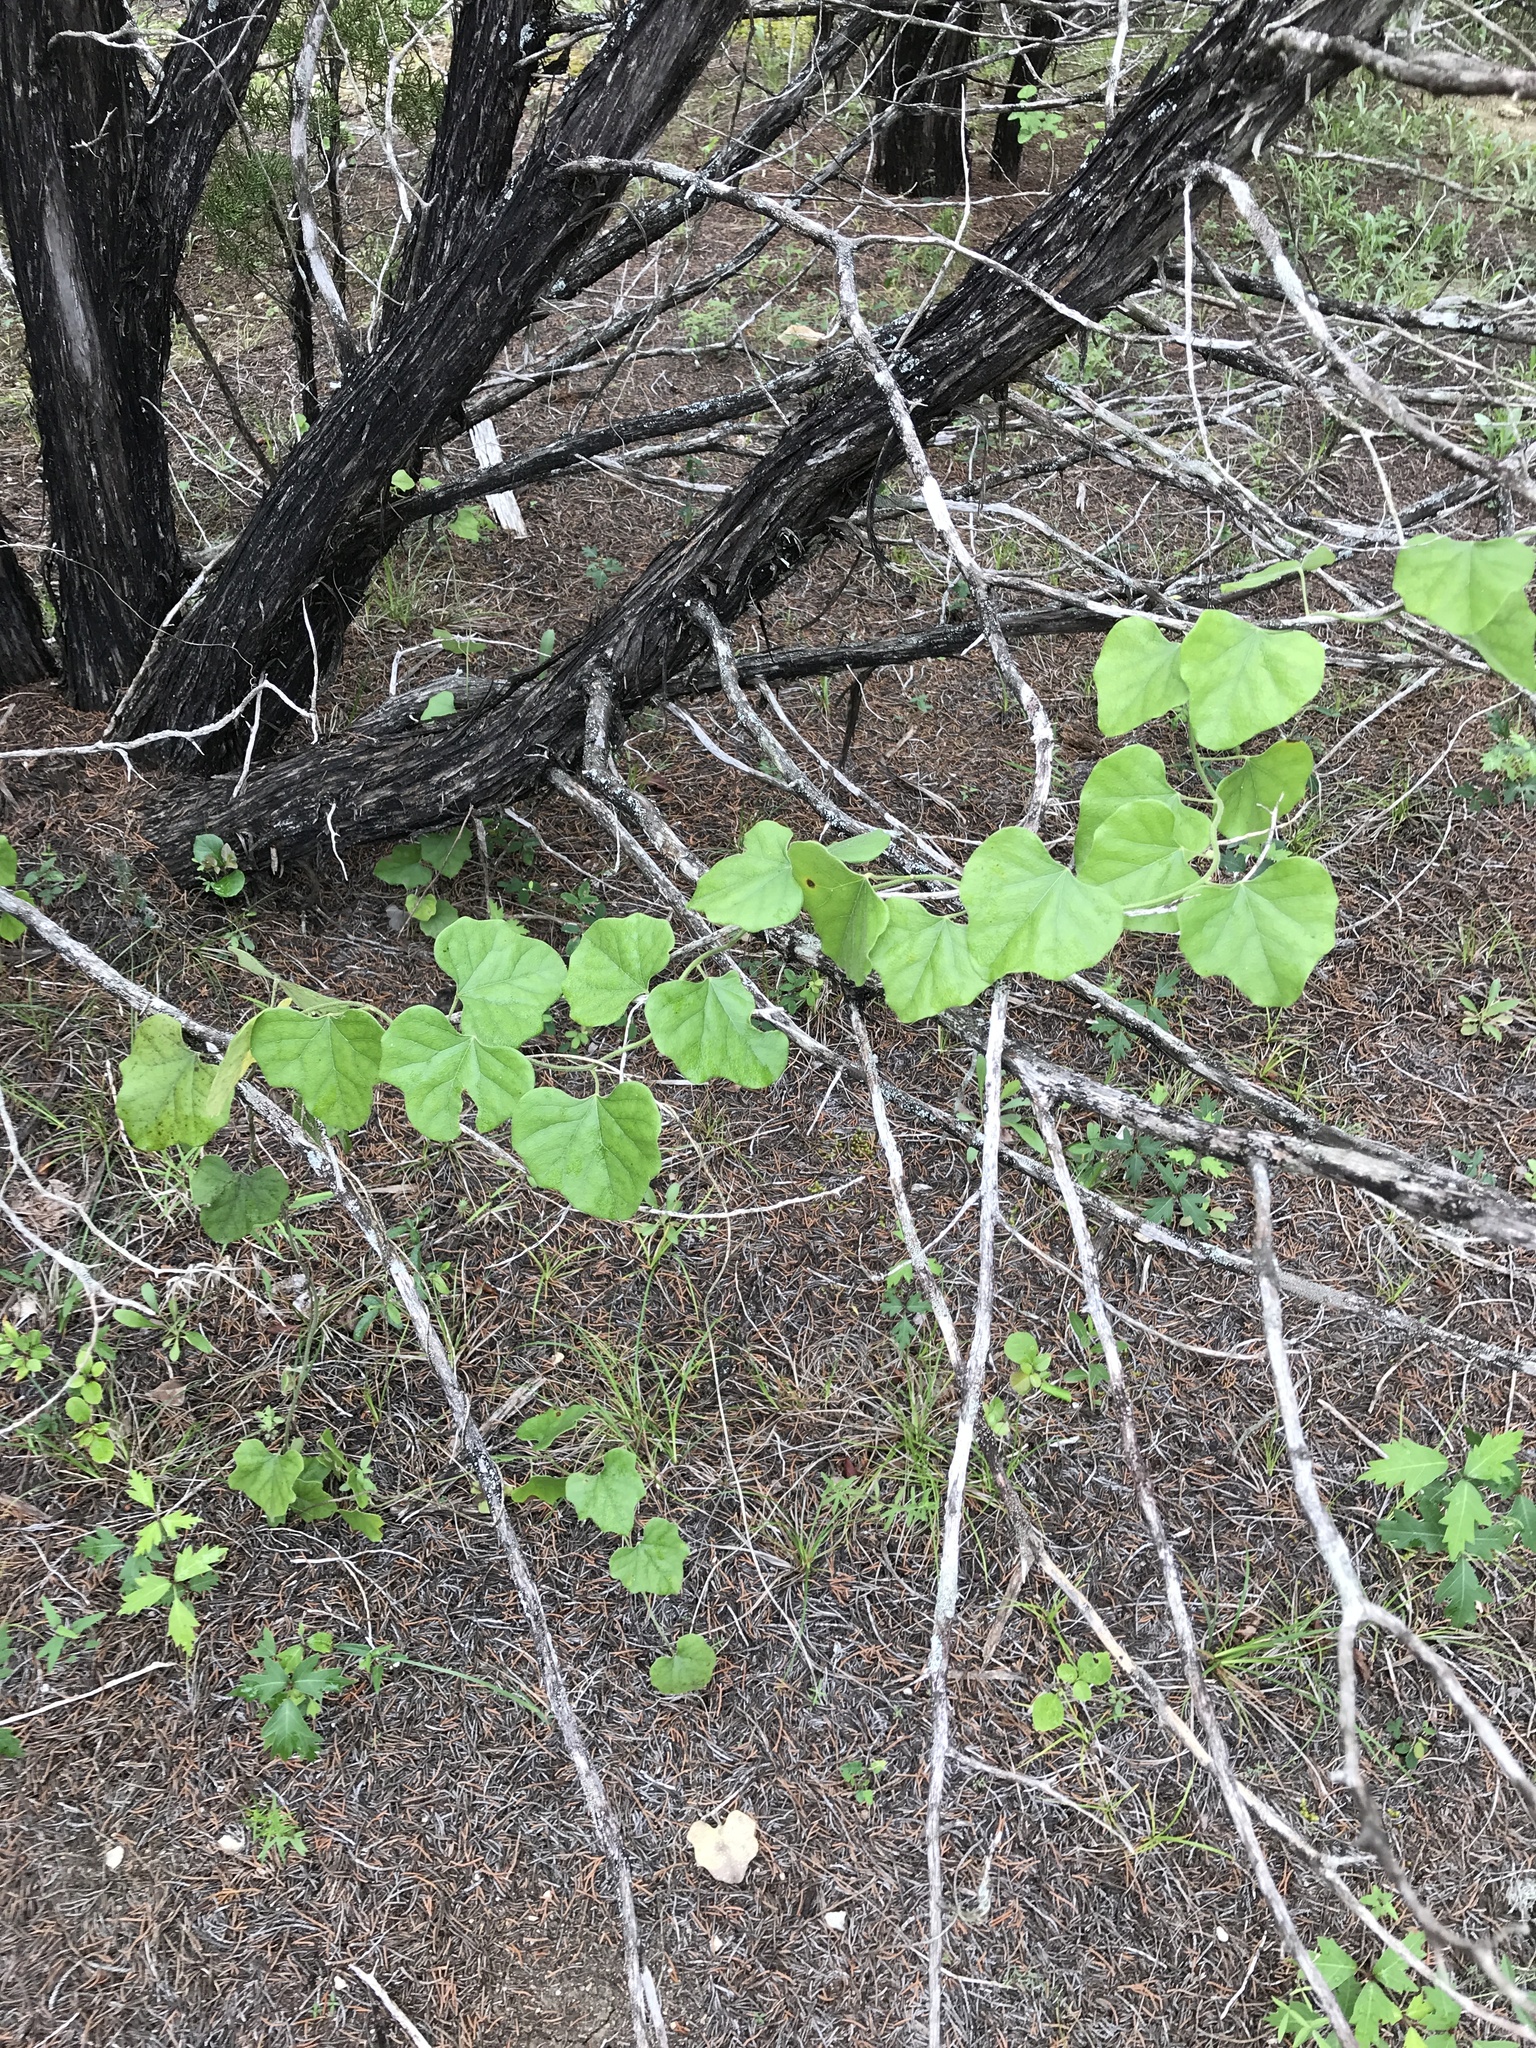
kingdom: Plantae
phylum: Tracheophyta
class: Magnoliopsida
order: Ranunculales
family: Menispermaceae
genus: Cocculus
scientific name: Cocculus carolinus
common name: Carolina moonseed
